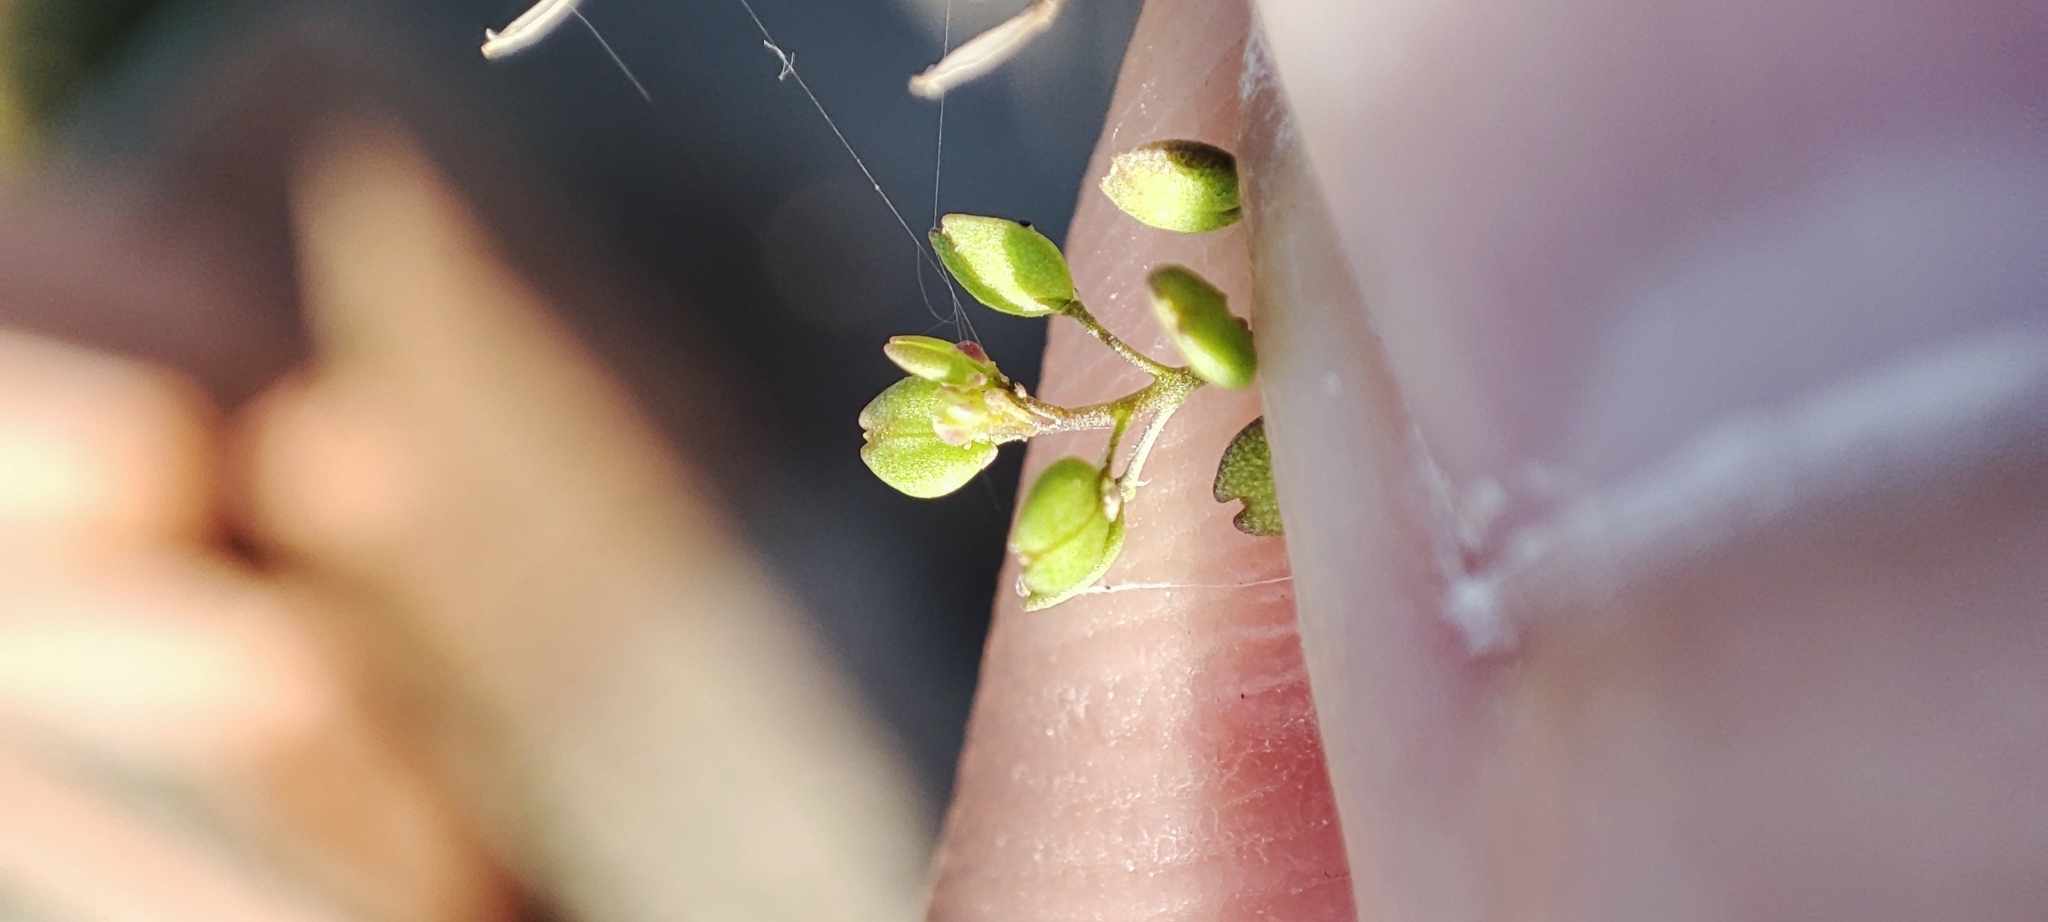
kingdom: Plantae
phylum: Tracheophyta
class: Magnoliopsida
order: Brassicales
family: Brassicaceae
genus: Lepidium
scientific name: Lepidium ruderale
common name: Narrow-leaved pepperwort
